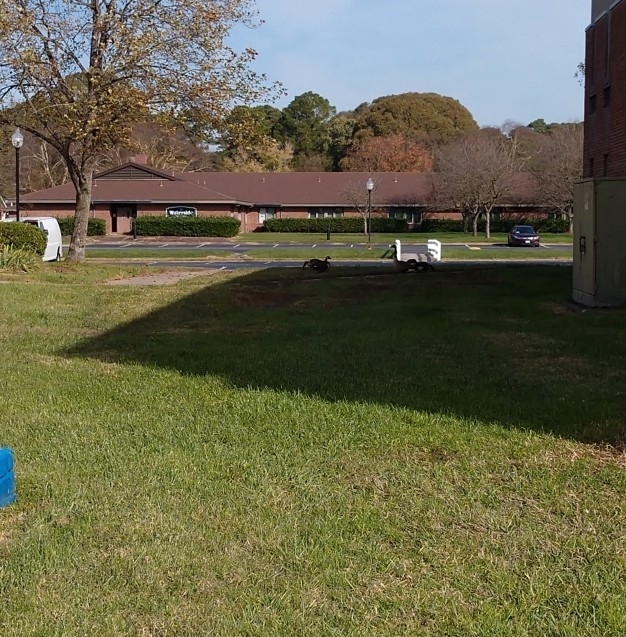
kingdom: Animalia
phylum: Chordata
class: Aves
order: Anseriformes
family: Anatidae
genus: Branta
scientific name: Branta canadensis
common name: Canada goose
